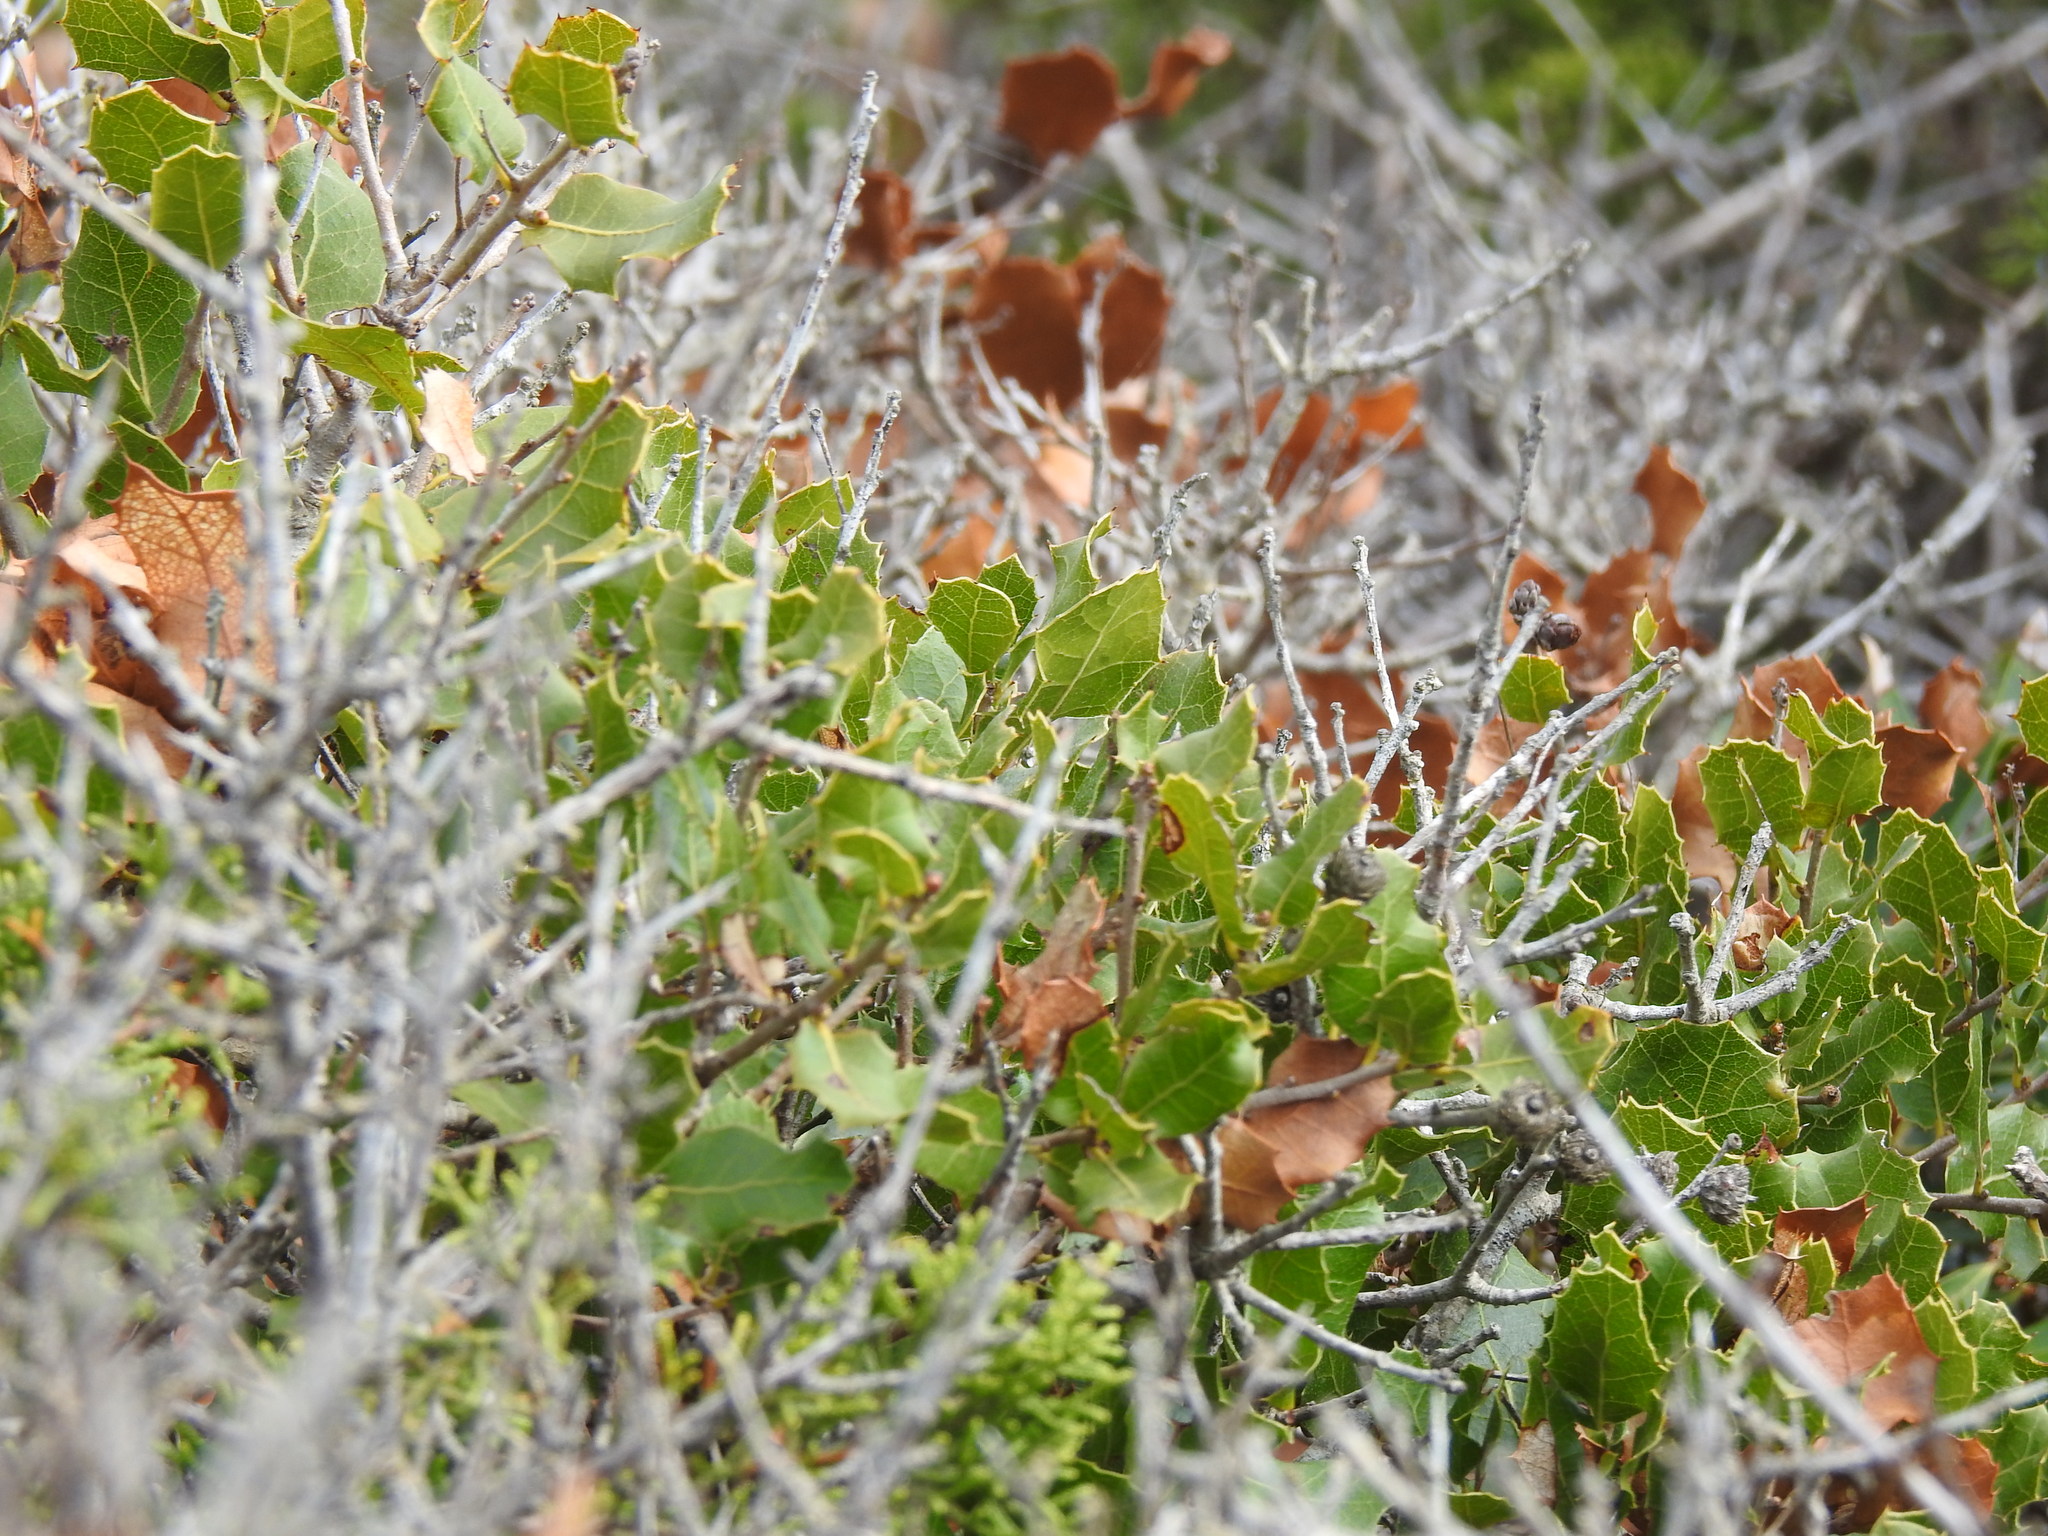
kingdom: Plantae
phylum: Tracheophyta
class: Magnoliopsida
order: Fagales
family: Fagaceae
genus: Quercus
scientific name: Quercus coccifera
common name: Kermes oak
